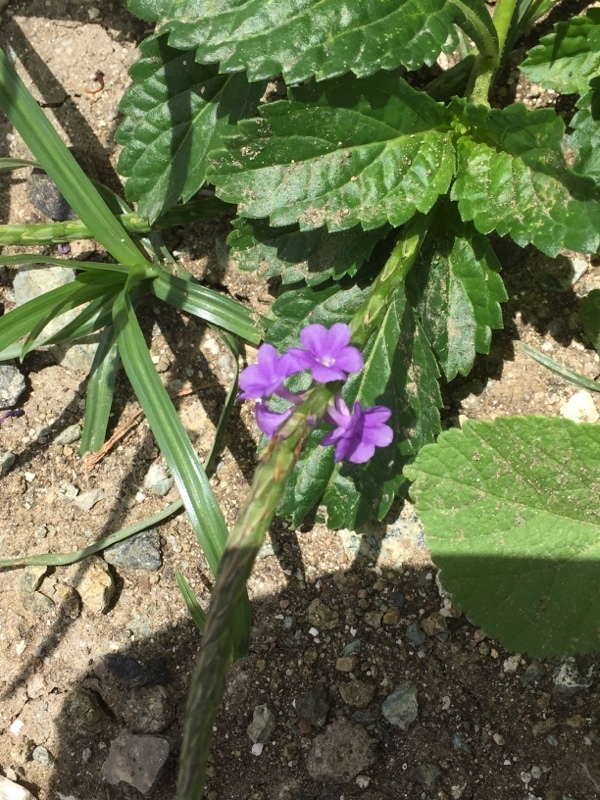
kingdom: Plantae
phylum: Tracheophyta
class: Magnoliopsida
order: Lamiales
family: Verbenaceae
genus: Stachytarpheta
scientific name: Stachytarpheta jamaicensis
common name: Light-blue snakeweed
